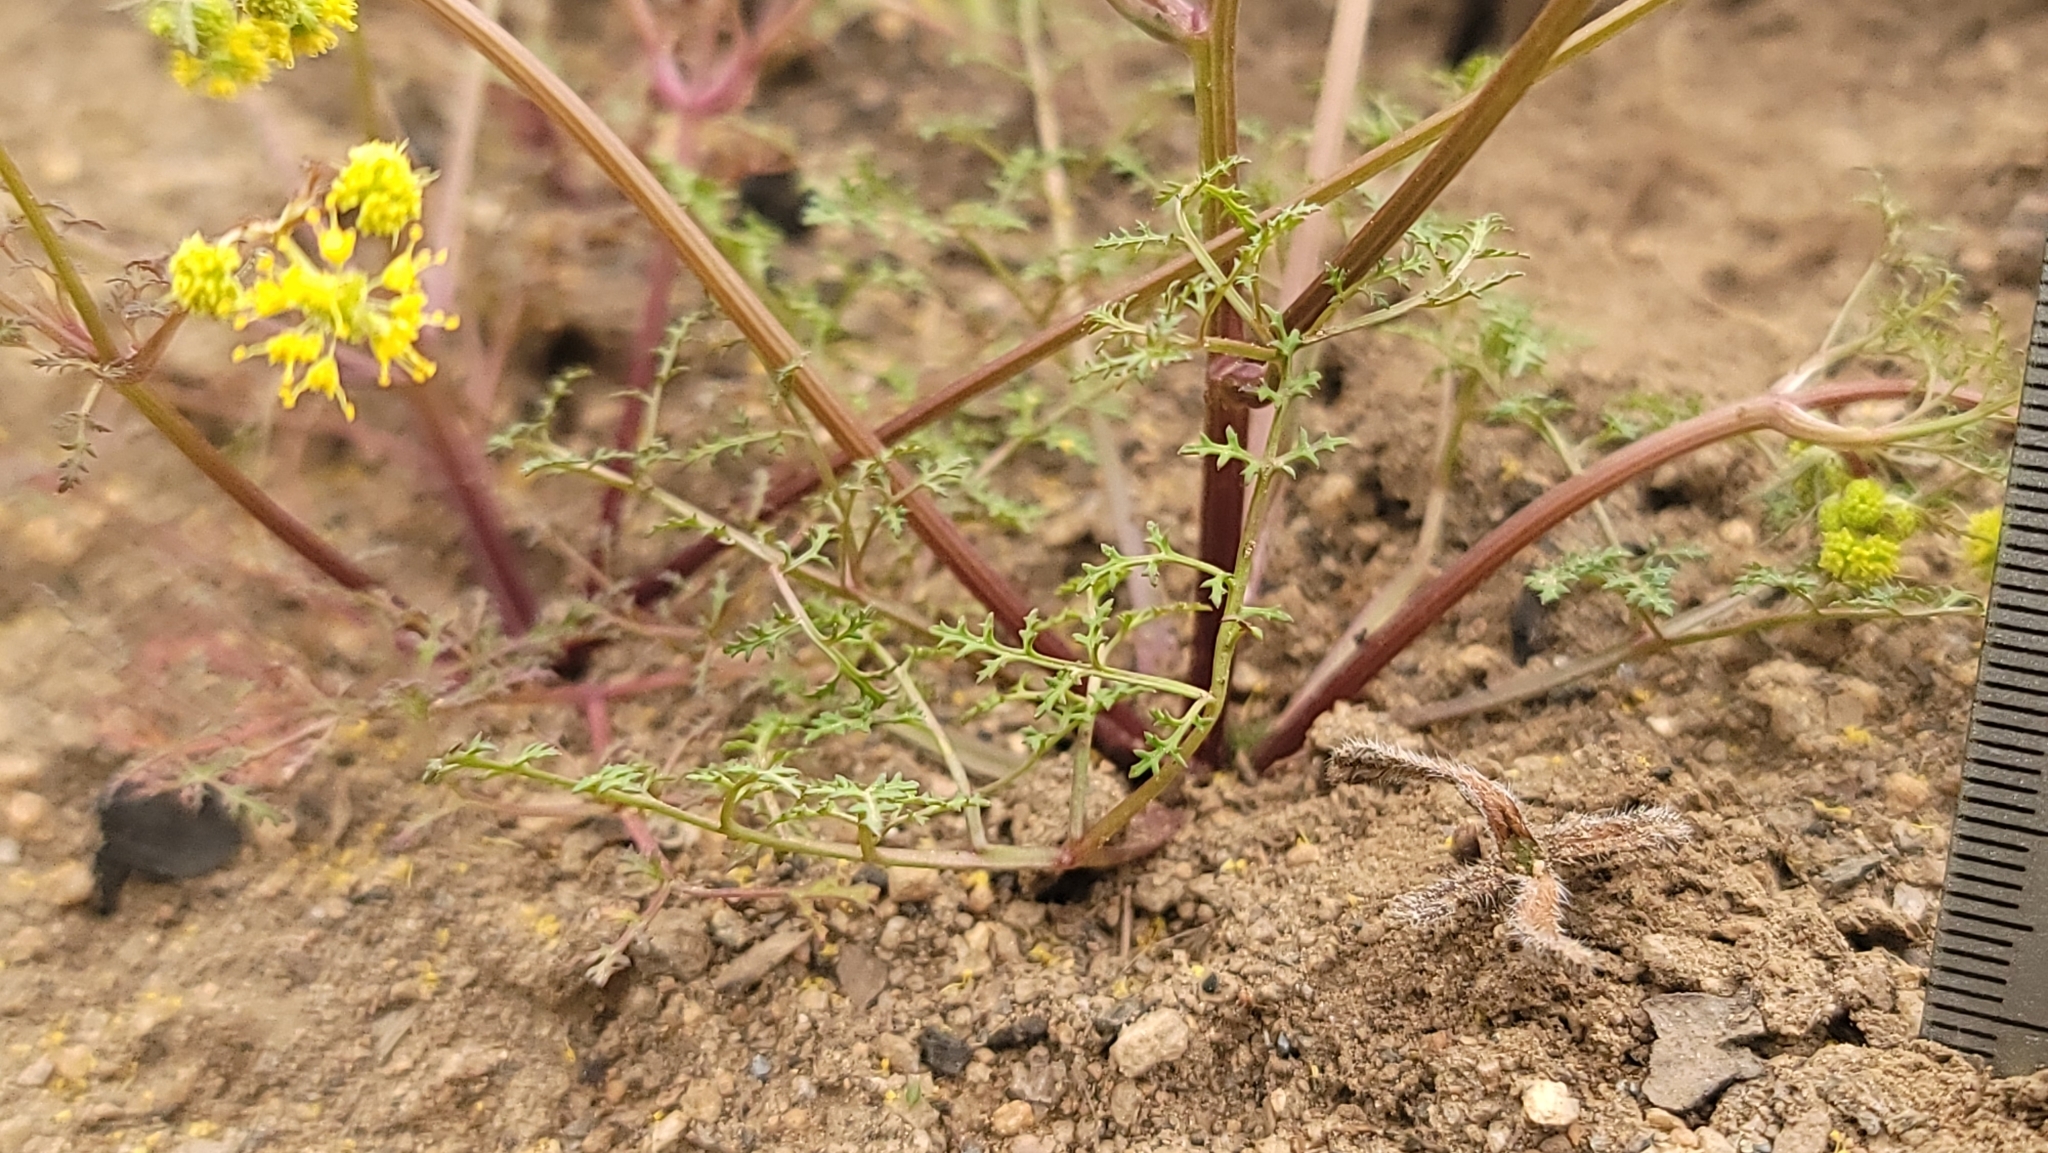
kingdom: Plantae
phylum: Tracheophyta
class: Magnoliopsida
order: Apiales
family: Apiaceae
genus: Sanicula
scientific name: Sanicula tuberosa
